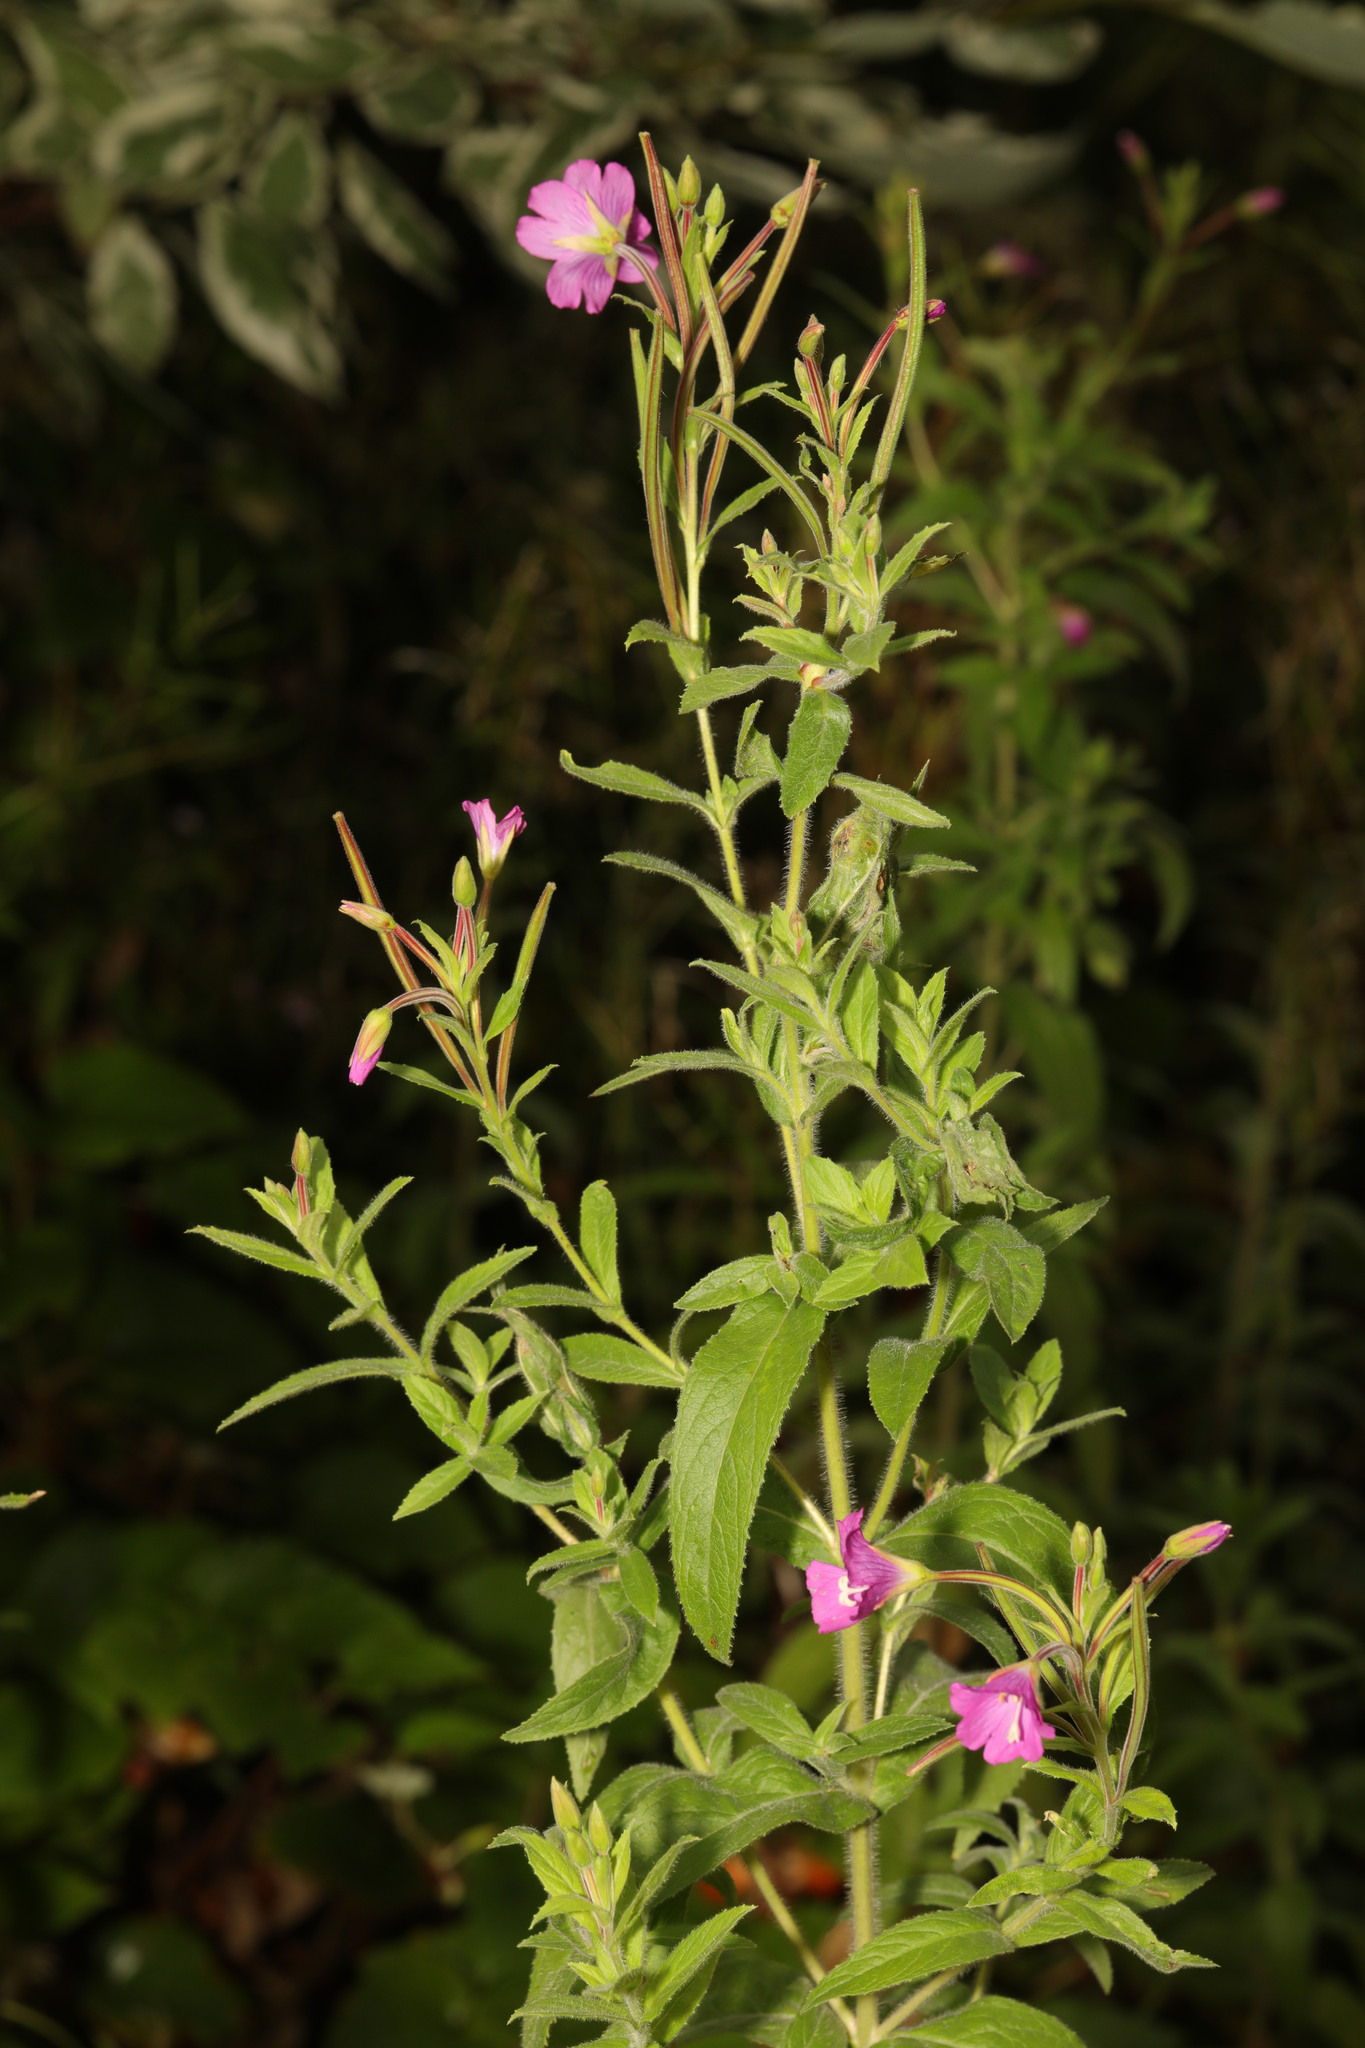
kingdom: Plantae
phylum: Tracheophyta
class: Magnoliopsida
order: Myrtales
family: Onagraceae
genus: Epilobium
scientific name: Epilobium hirsutum
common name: Great willowherb
